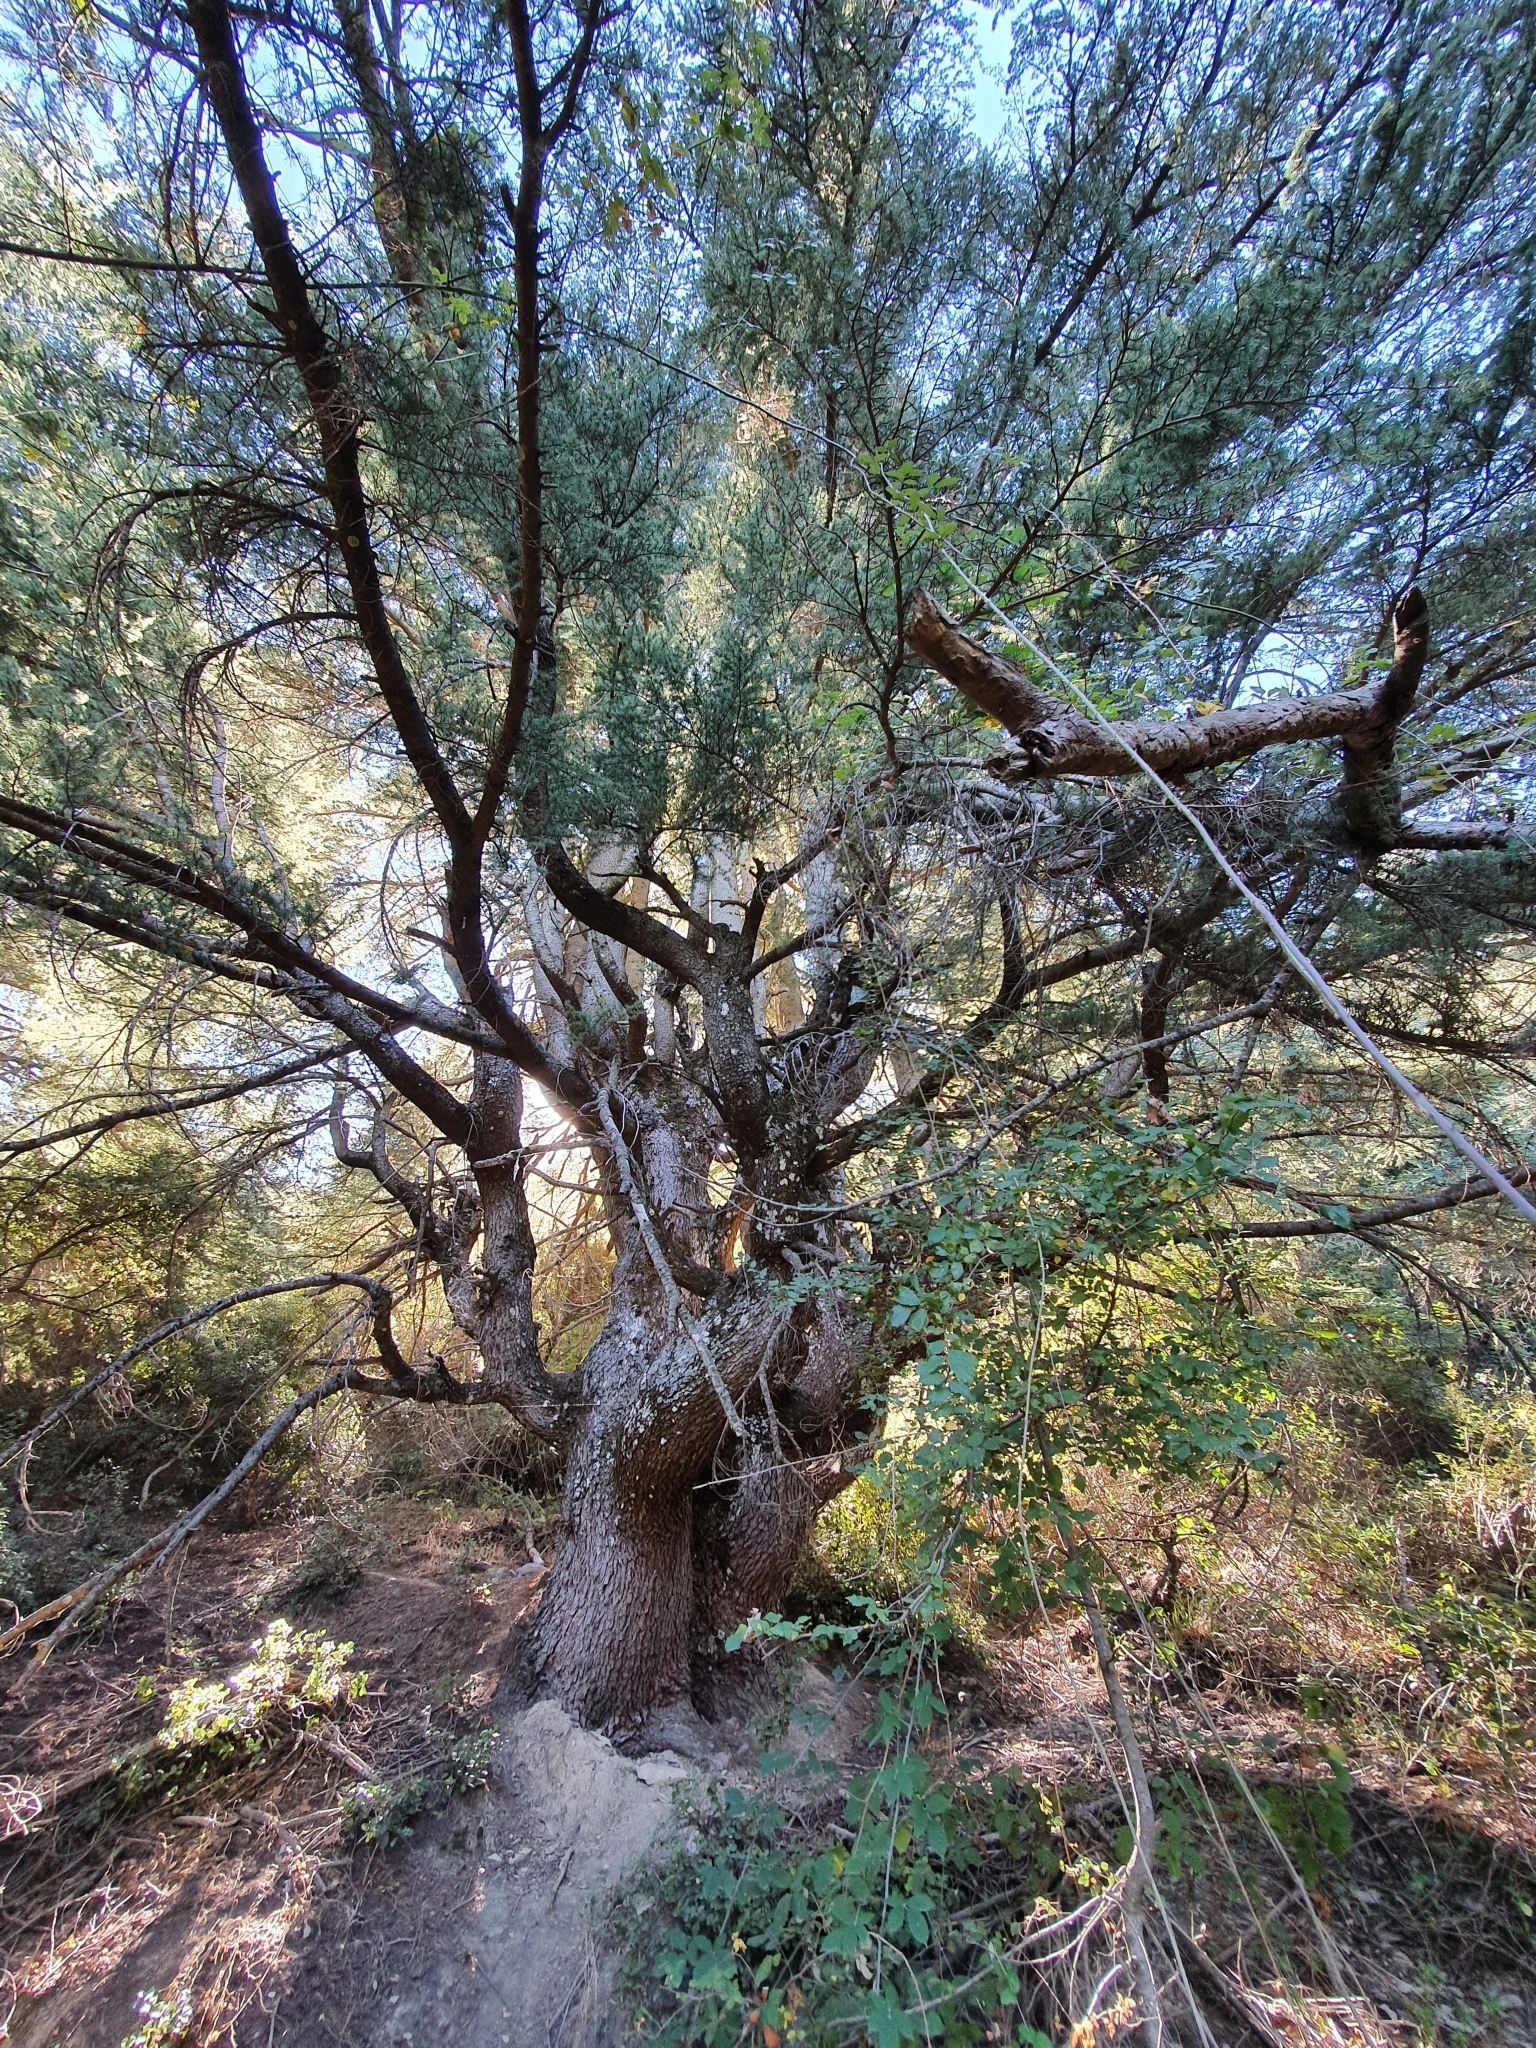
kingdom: Plantae
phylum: Tracheophyta
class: Pinopsida
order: Pinales
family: Pinaceae
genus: Cedrus
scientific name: Cedrus atlantica
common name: Atlas cedar
